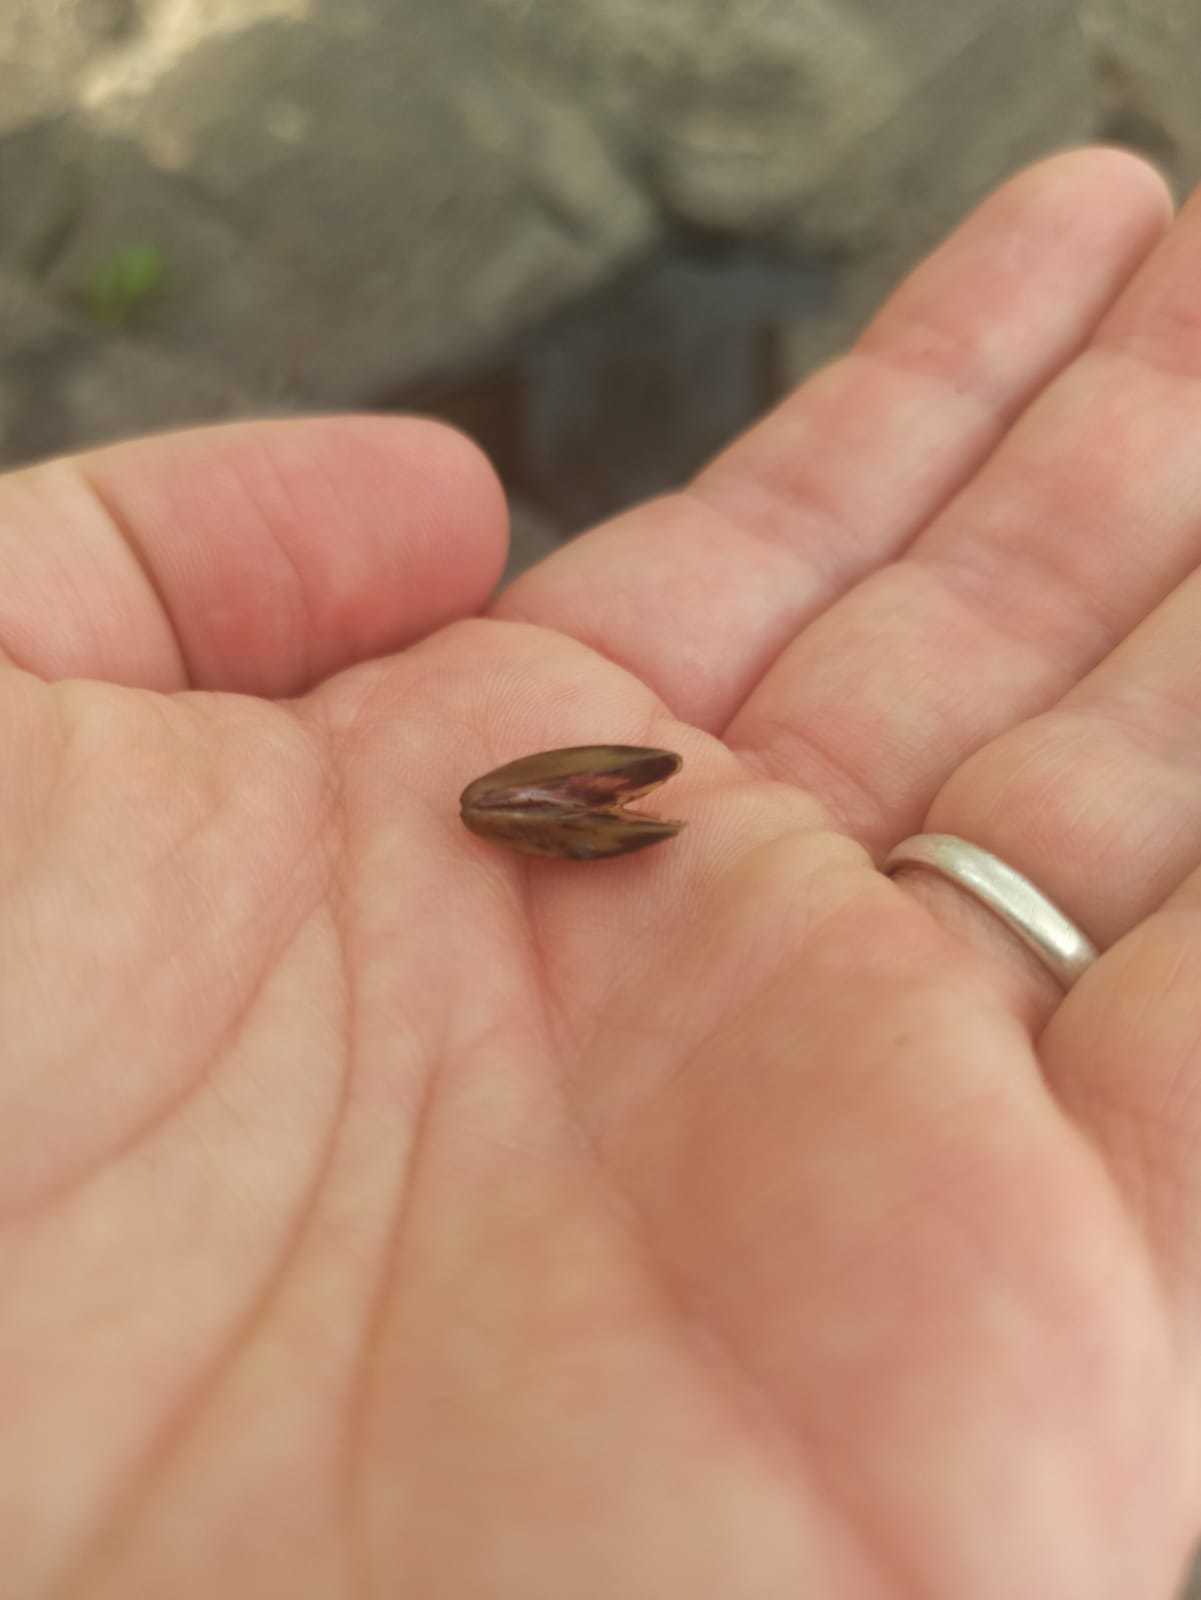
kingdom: Animalia
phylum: Mollusca
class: Bivalvia
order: Mytilida
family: Mytilidae
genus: Limnoperna
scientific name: Limnoperna fortunei
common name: Golden mussel
